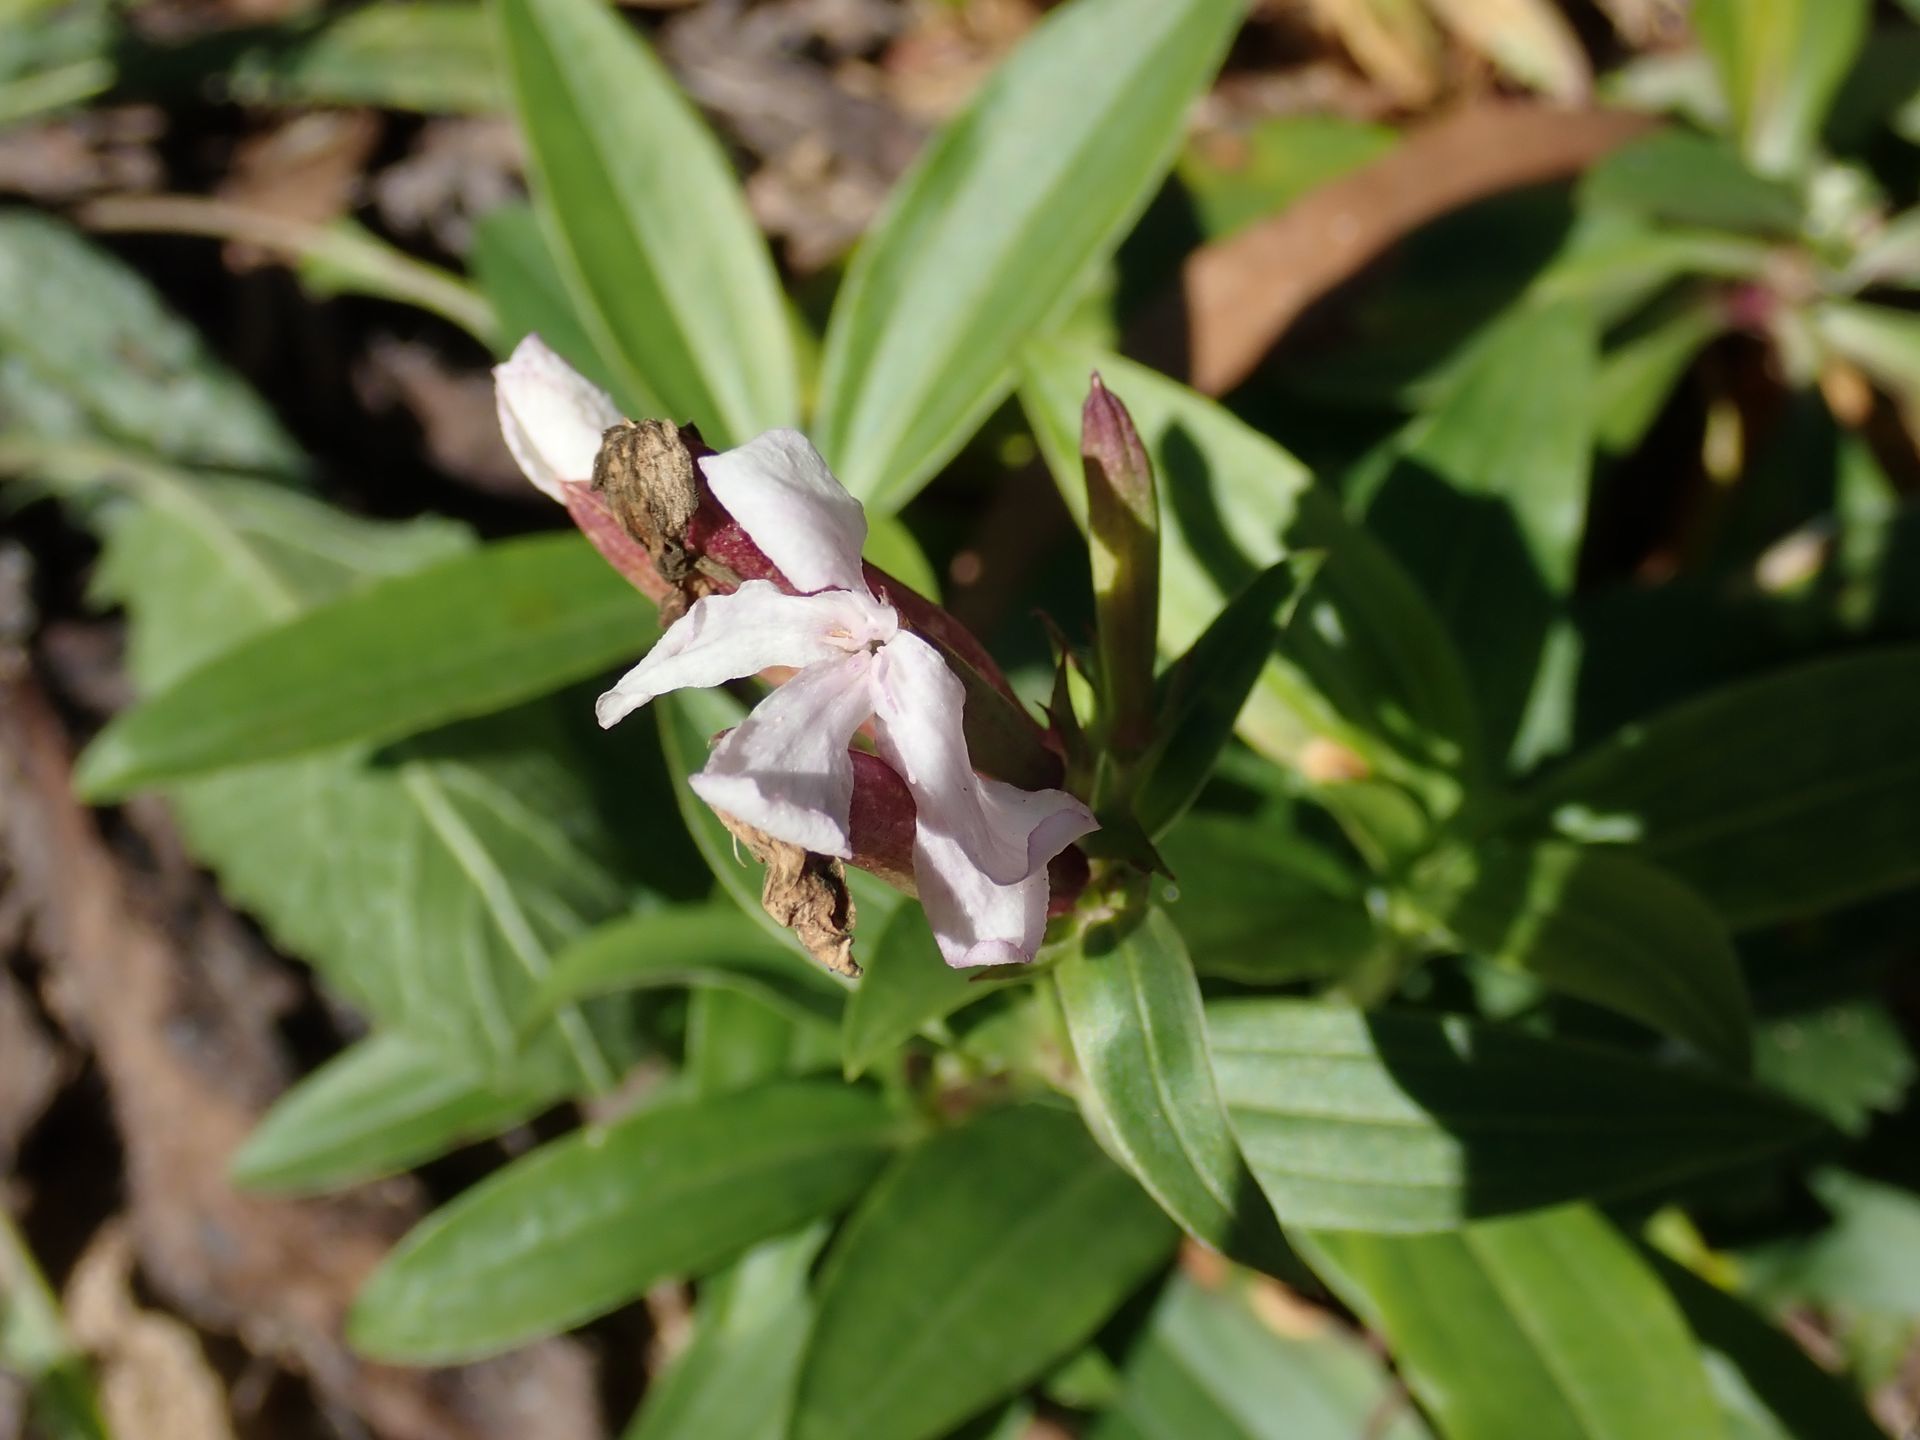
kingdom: Plantae
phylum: Tracheophyta
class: Magnoliopsida
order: Caryophyllales
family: Caryophyllaceae
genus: Saponaria
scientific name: Saponaria officinalis
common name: Soapwort
